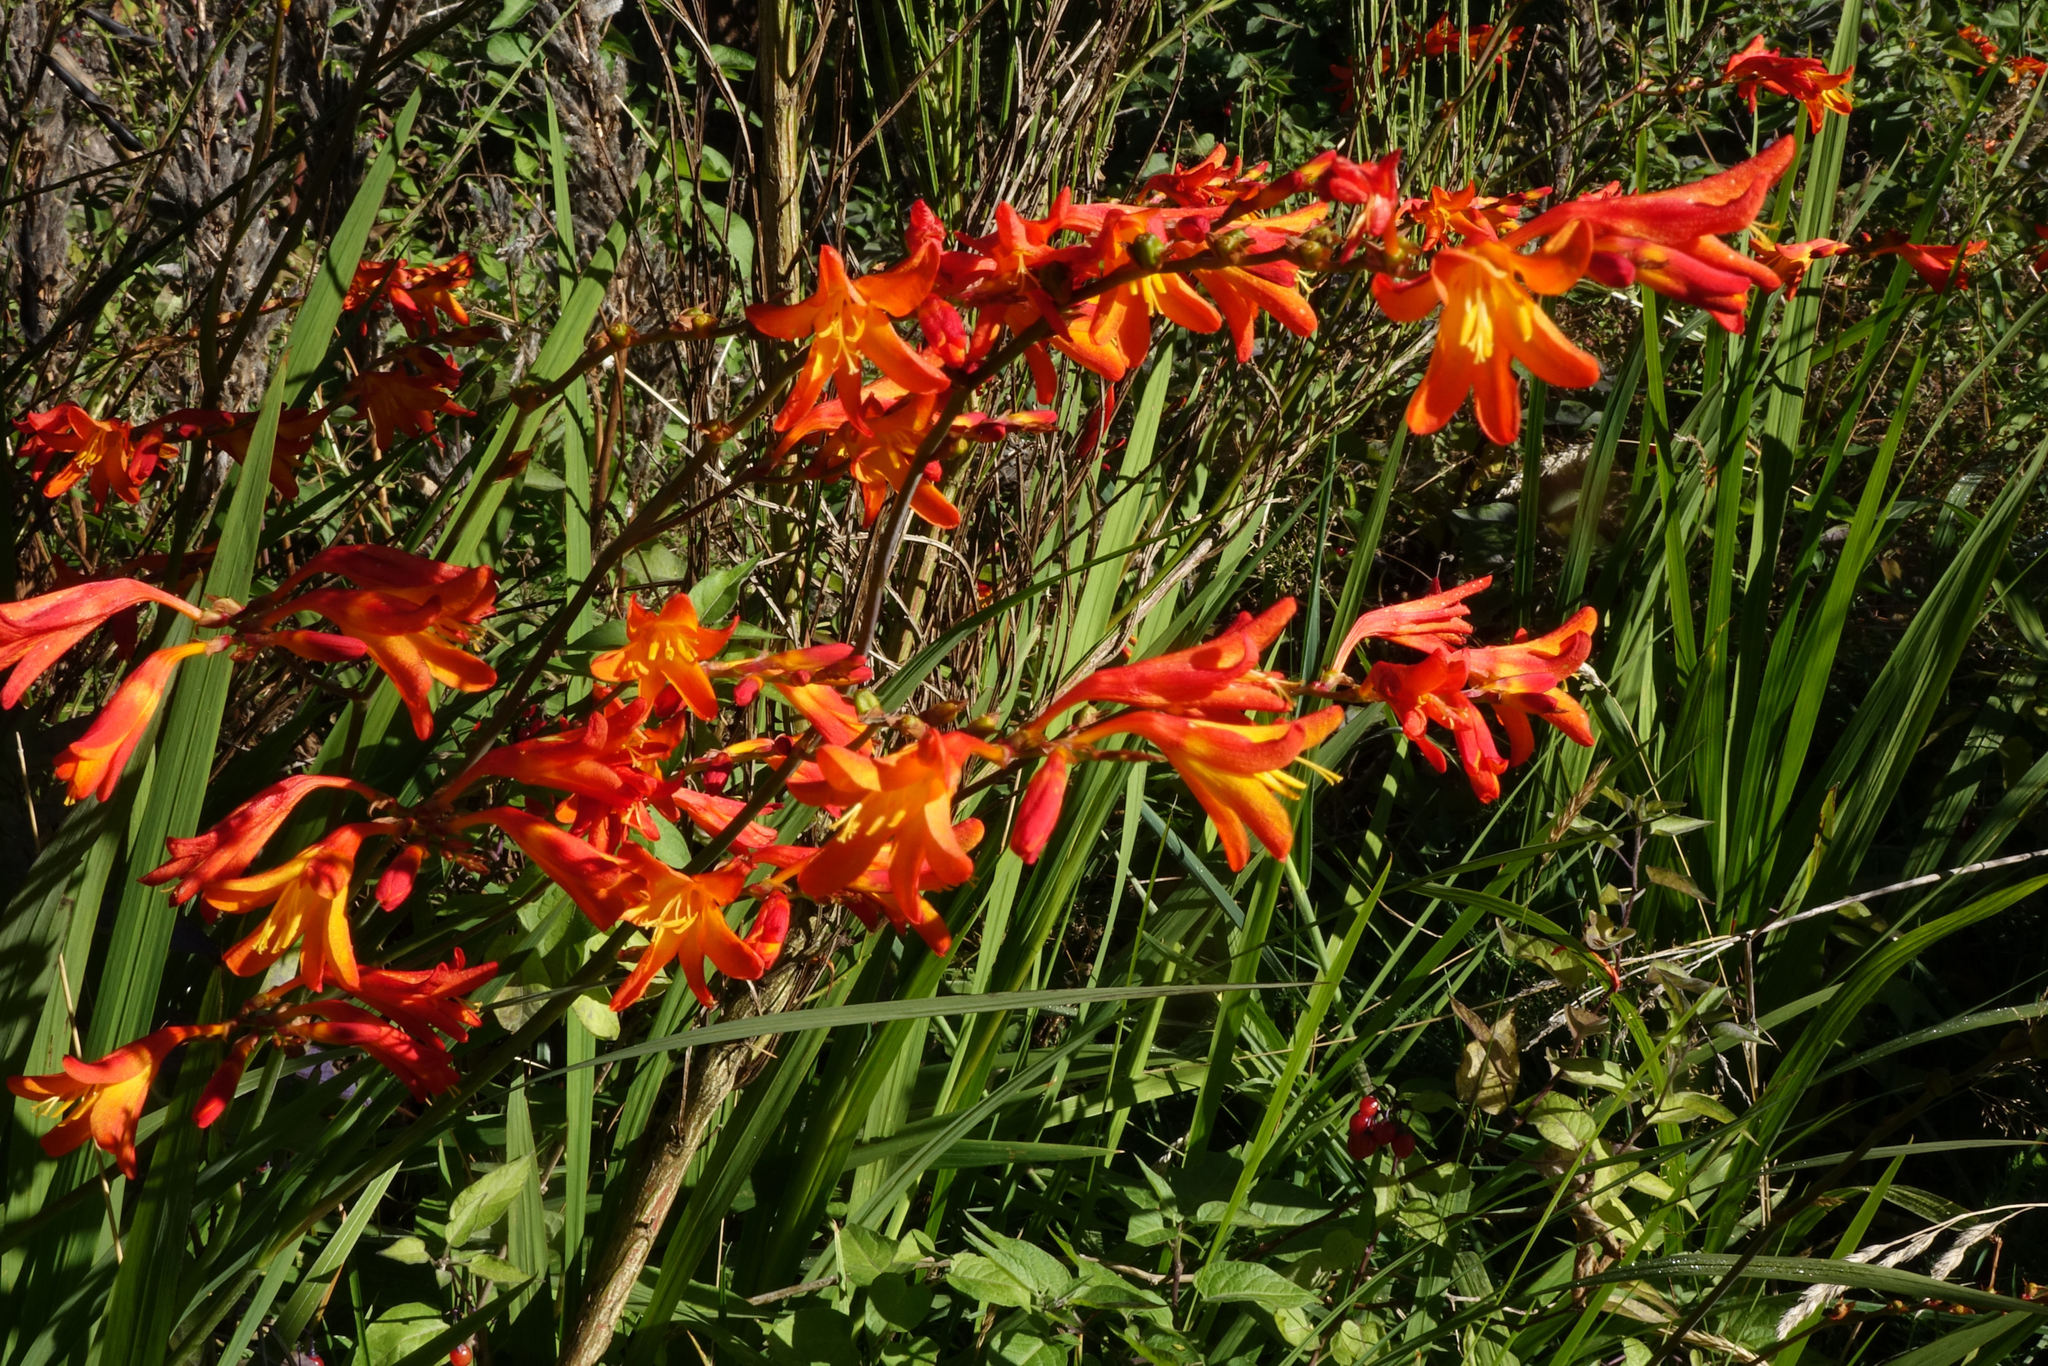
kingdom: Plantae
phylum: Tracheophyta
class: Liliopsida
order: Asparagales
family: Iridaceae
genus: Crocosmia
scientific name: Crocosmia crocosmiiflora
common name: Montbretia
